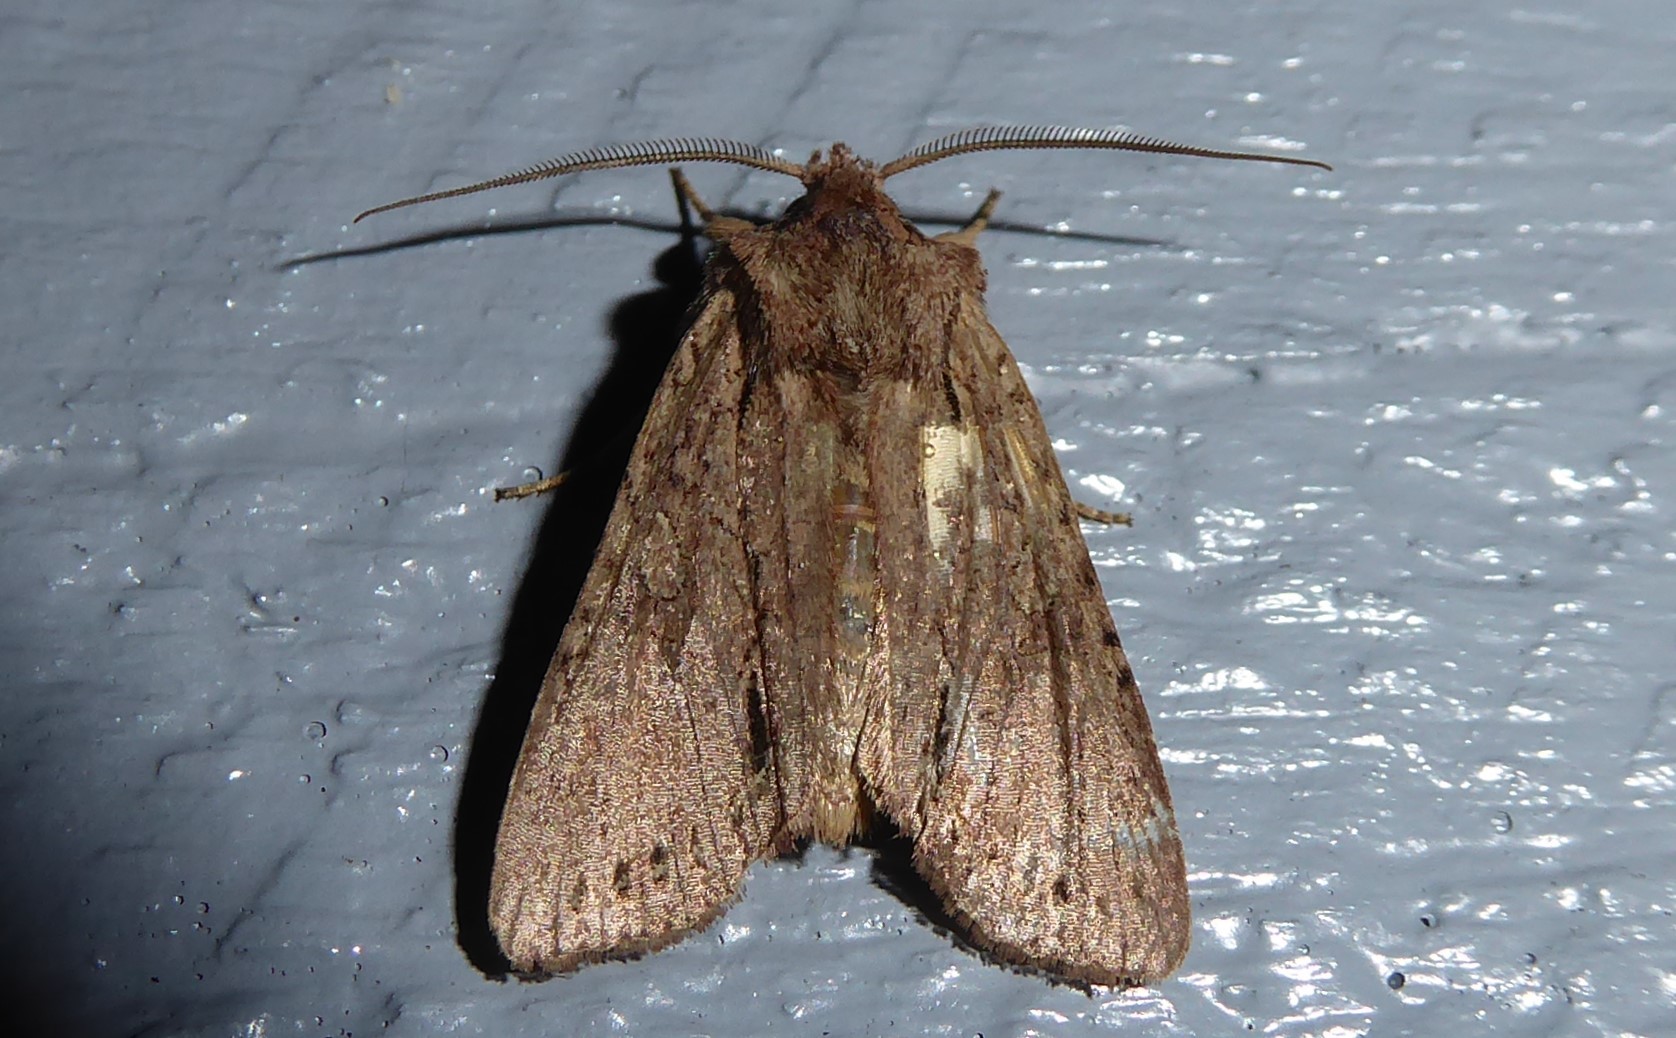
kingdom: Animalia
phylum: Arthropoda
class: Insecta
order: Lepidoptera
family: Noctuidae
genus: Ichneutica
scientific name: Ichneutica
